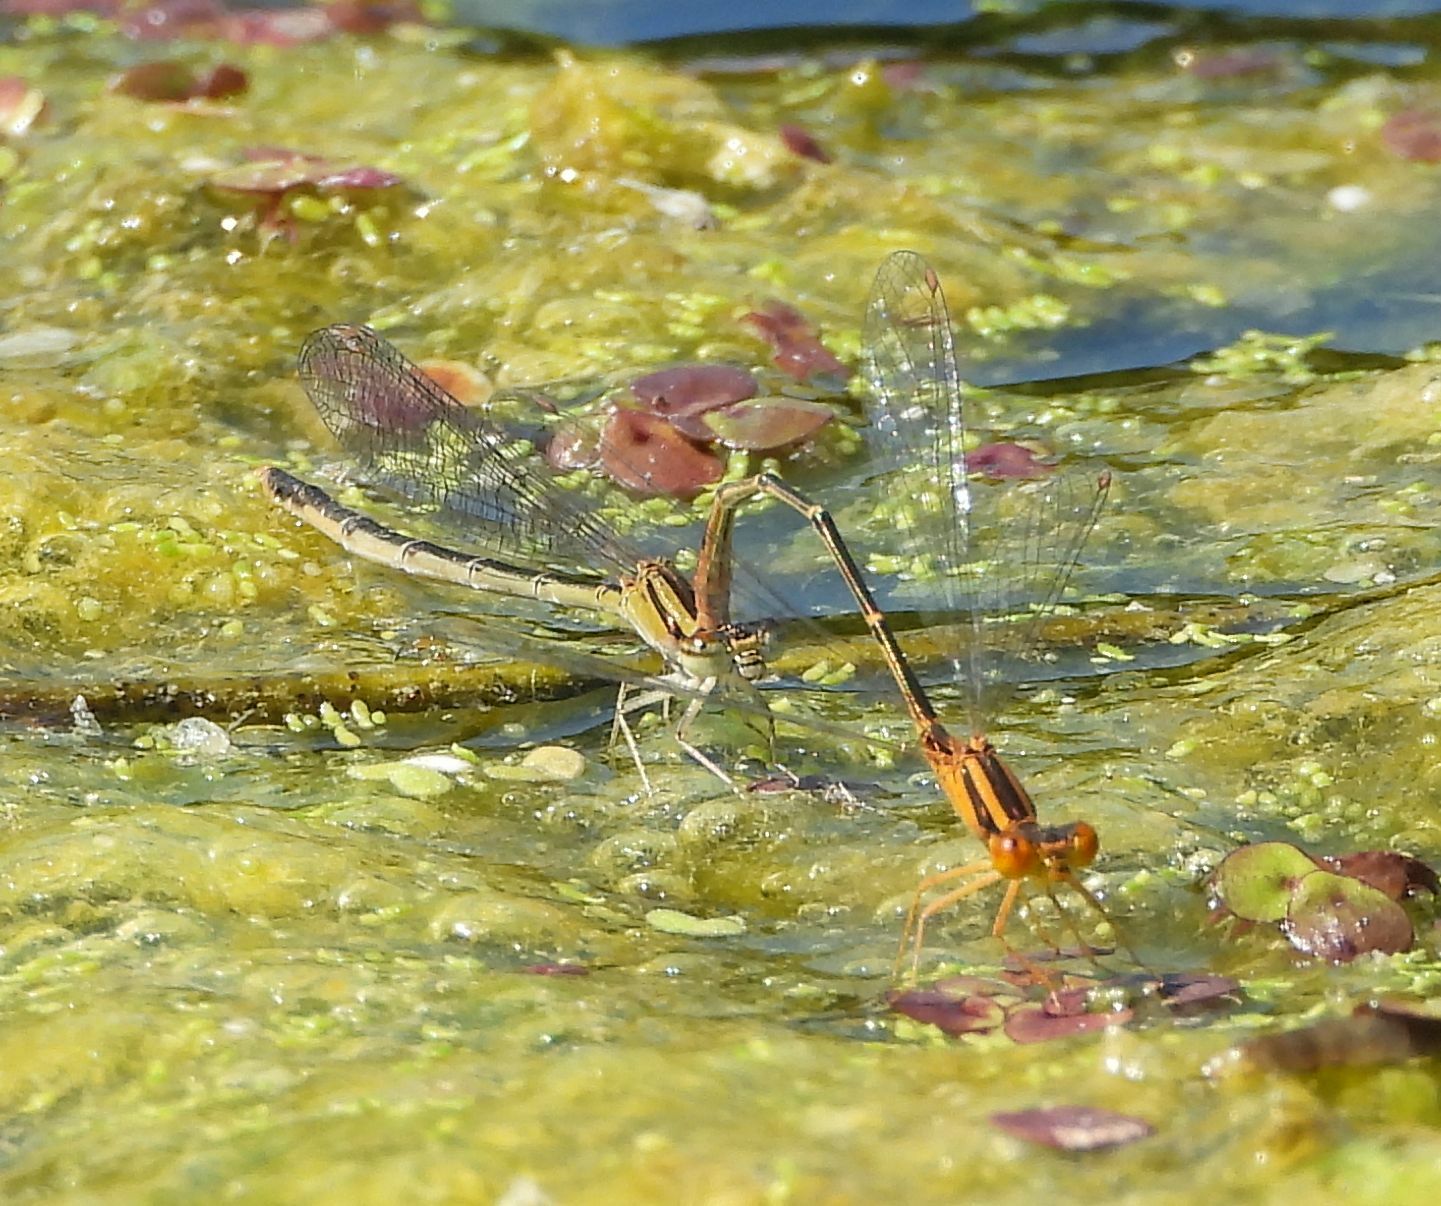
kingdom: Animalia
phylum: Arthropoda
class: Insecta
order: Odonata
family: Coenagrionidae
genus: Enallagma
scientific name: Enallagma signatum
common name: Orange bluet
